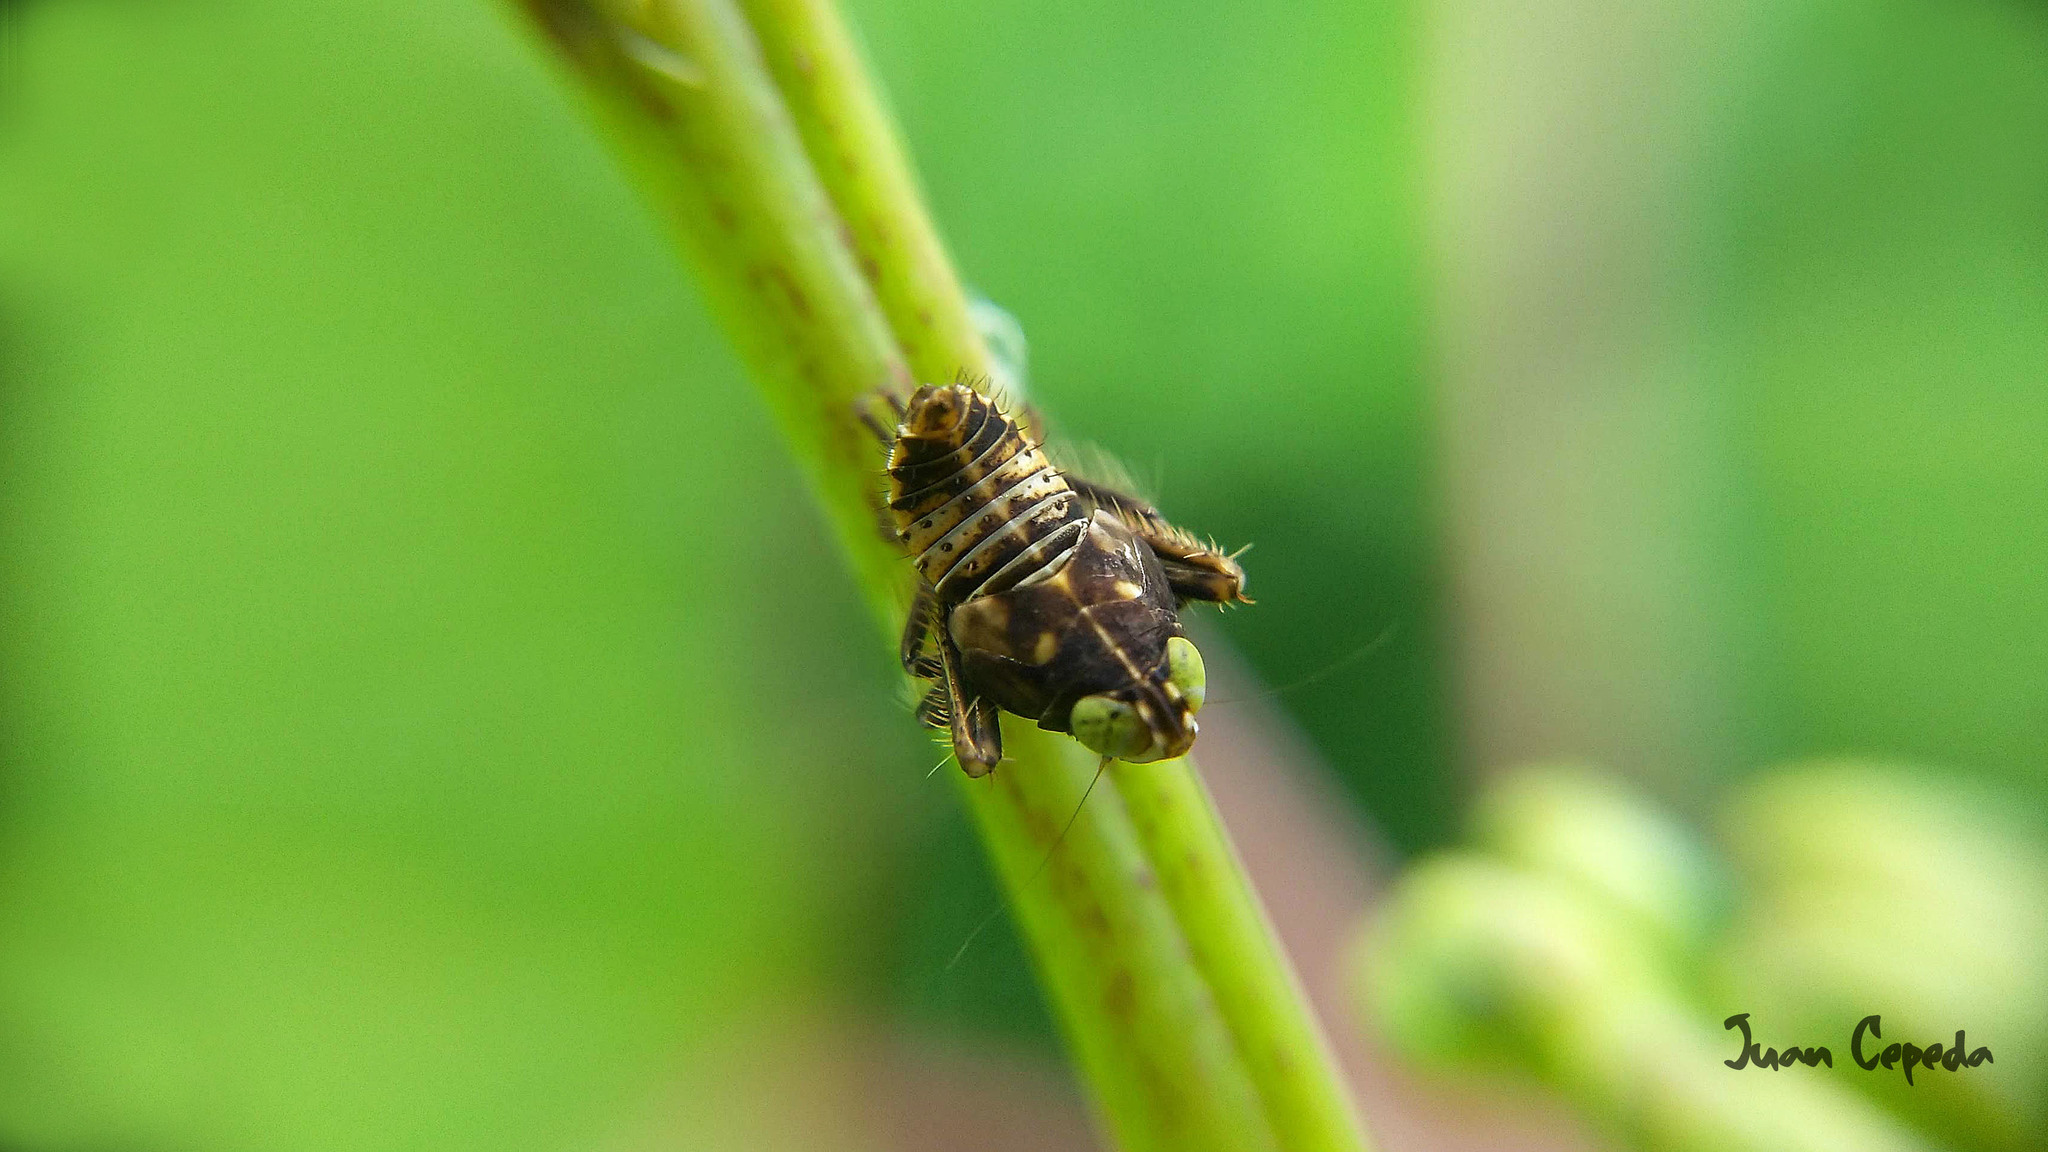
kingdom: Animalia
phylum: Arthropoda
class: Insecta
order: Hemiptera
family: Cicadellidae
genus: Jikradia
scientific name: Jikradia olitoria
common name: Coppery leafhopper
